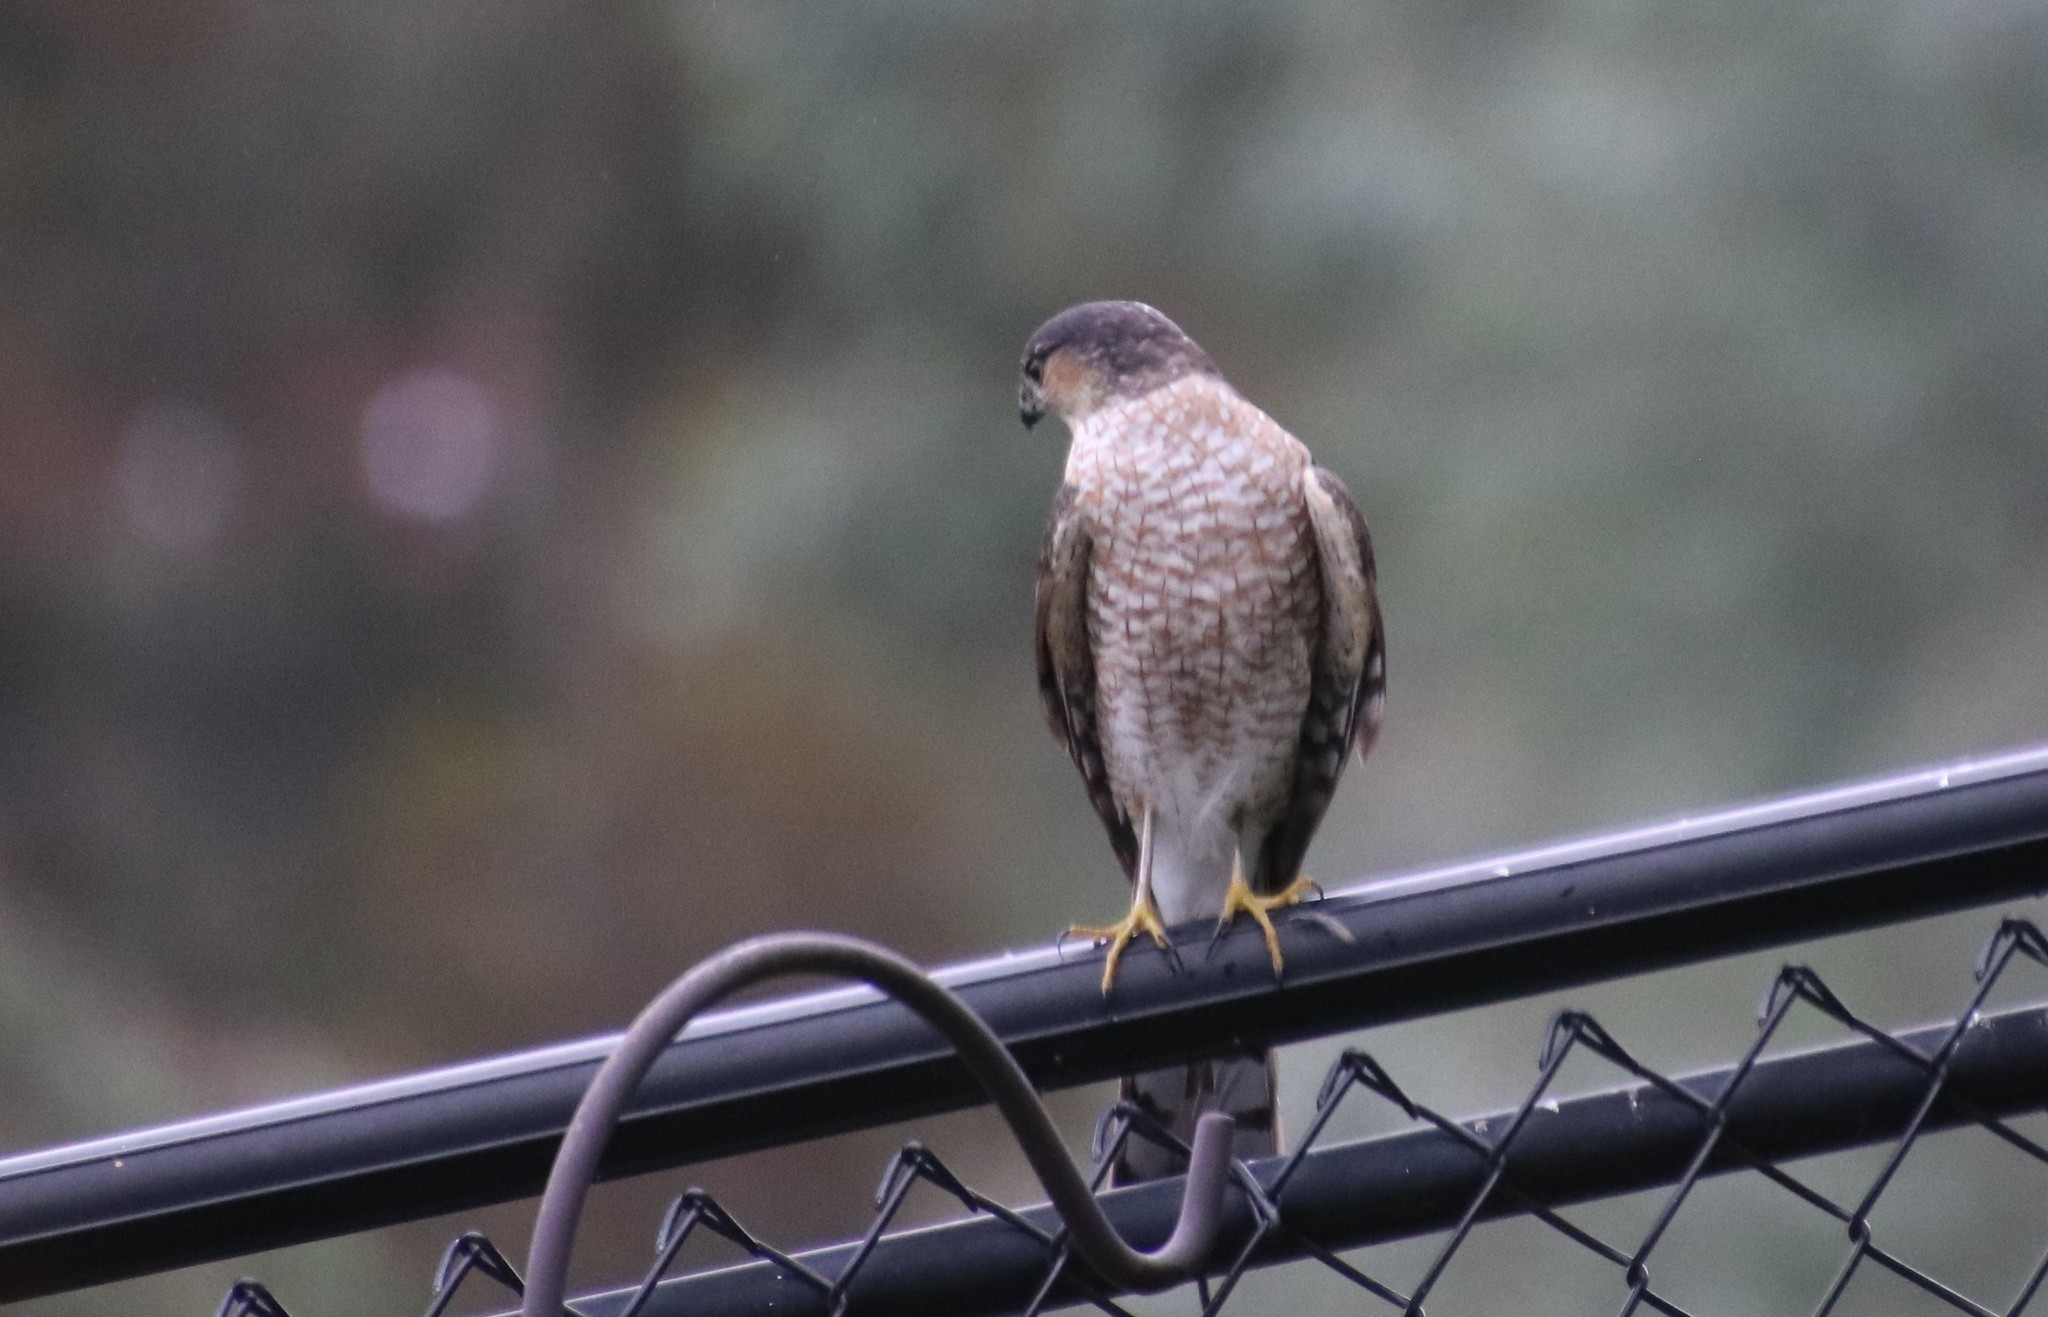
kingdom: Animalia
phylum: Chordata
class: Aves
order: Accipitriformes
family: Accipitridae
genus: Accipiter
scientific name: Accipiter striatus
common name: Sharp-shinned hawk
